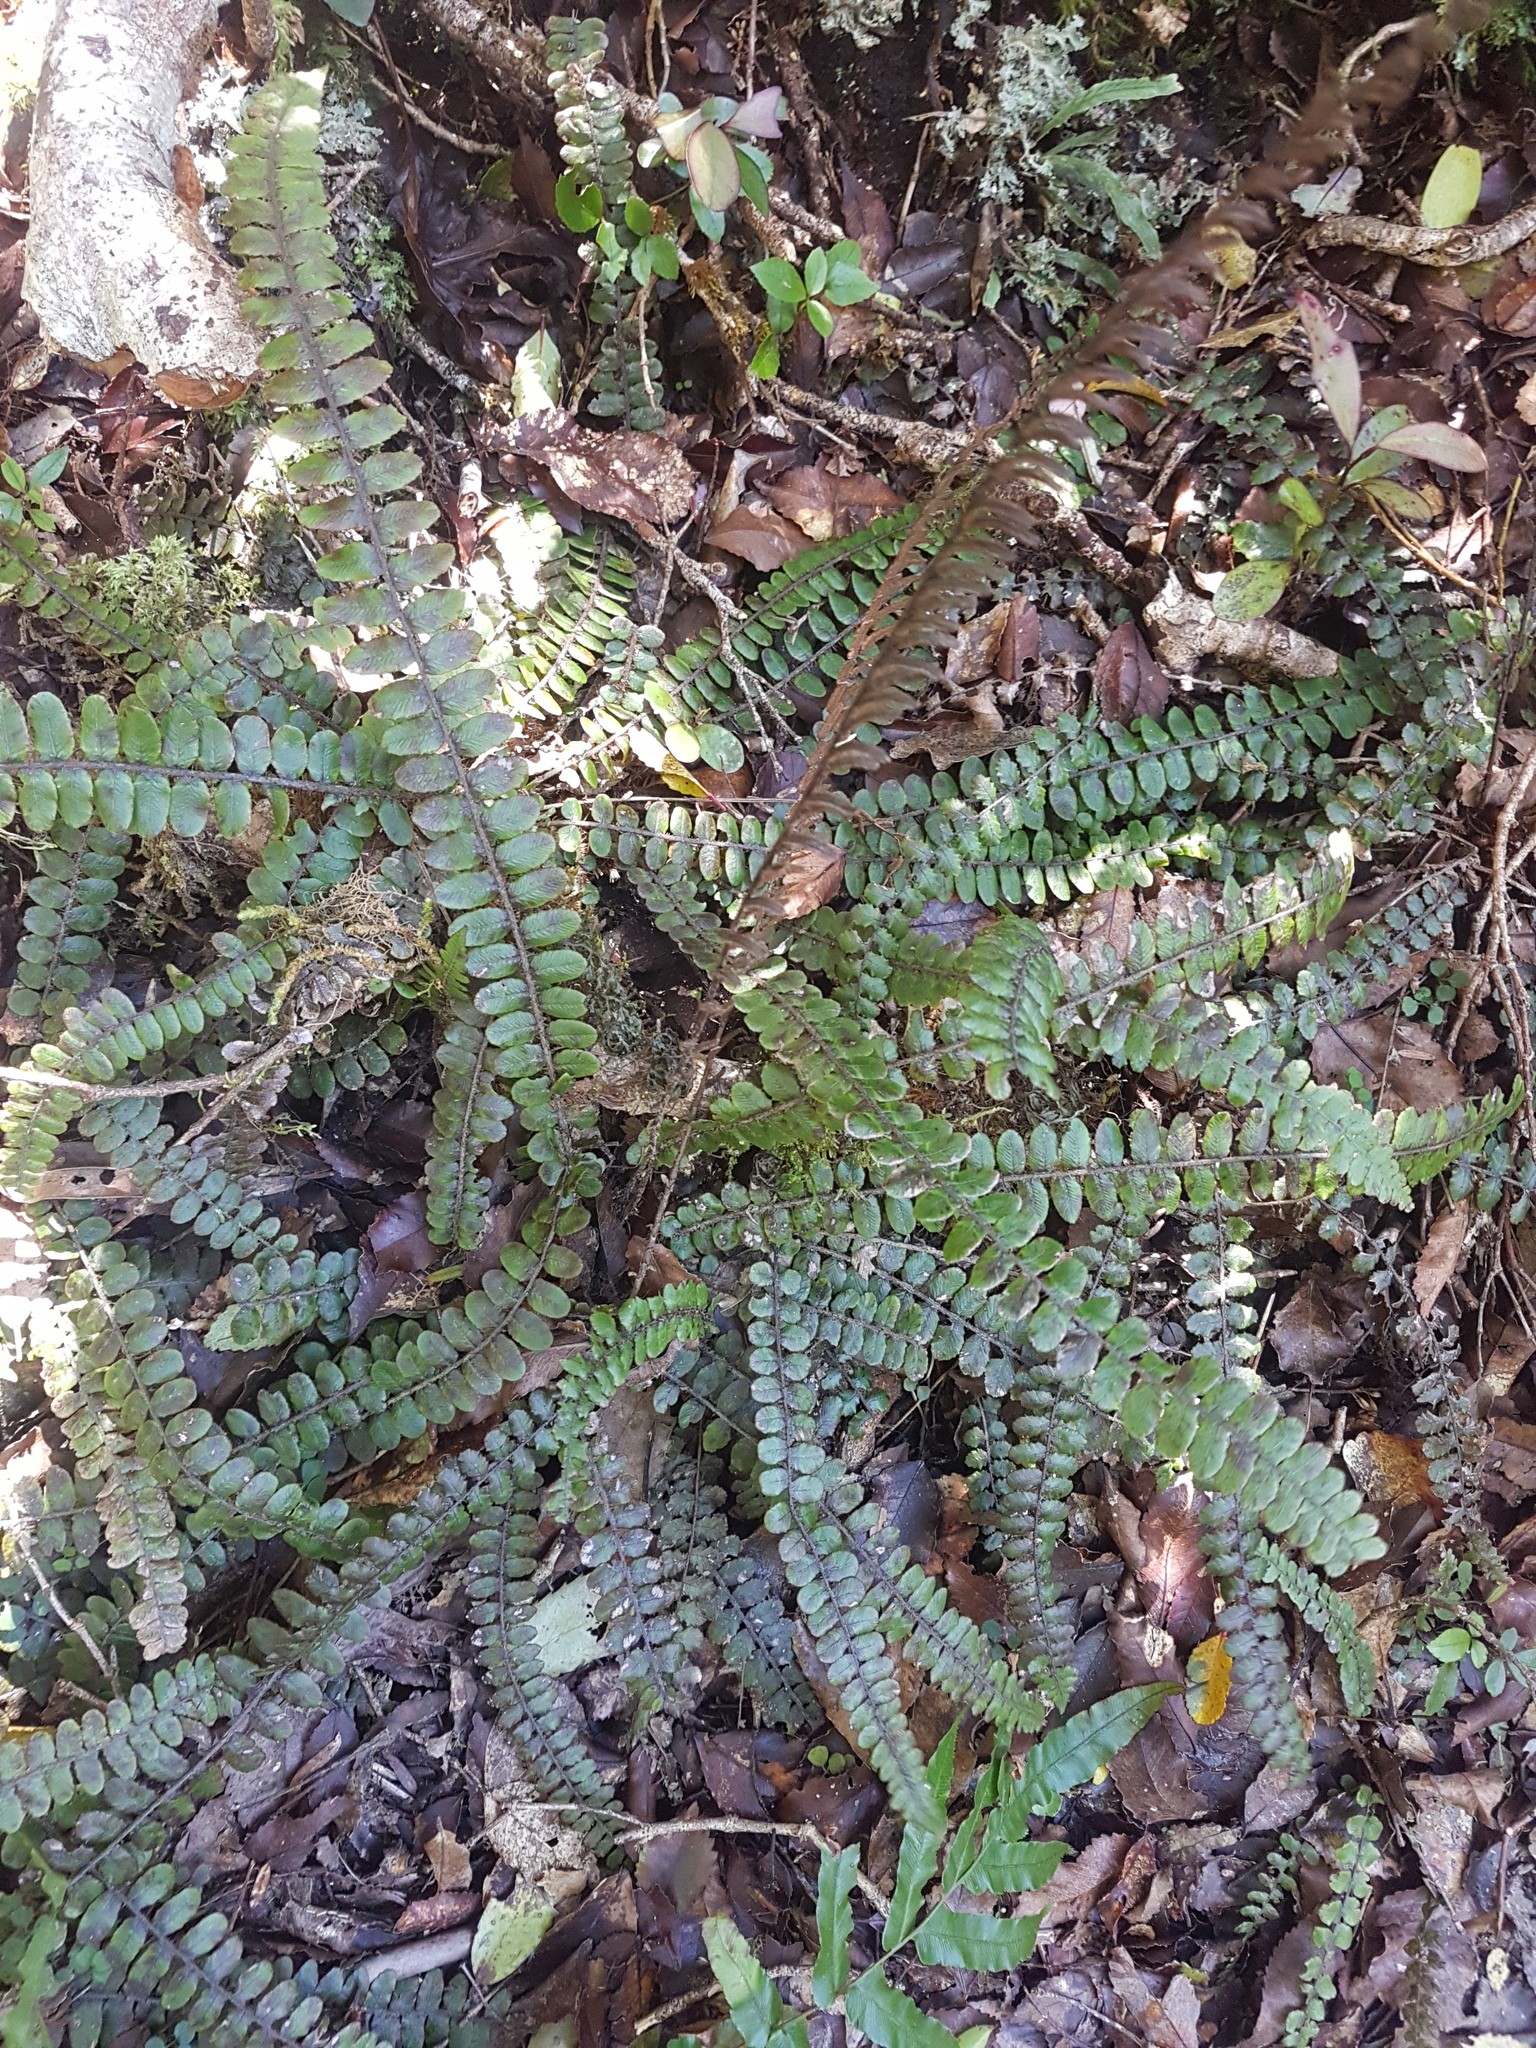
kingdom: Plantae
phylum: Tracheophyta
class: Polypodiopsida
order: Polypodiales
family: Blechnaceae
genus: Cranfillia
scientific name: Cranfillia fluviatilis
